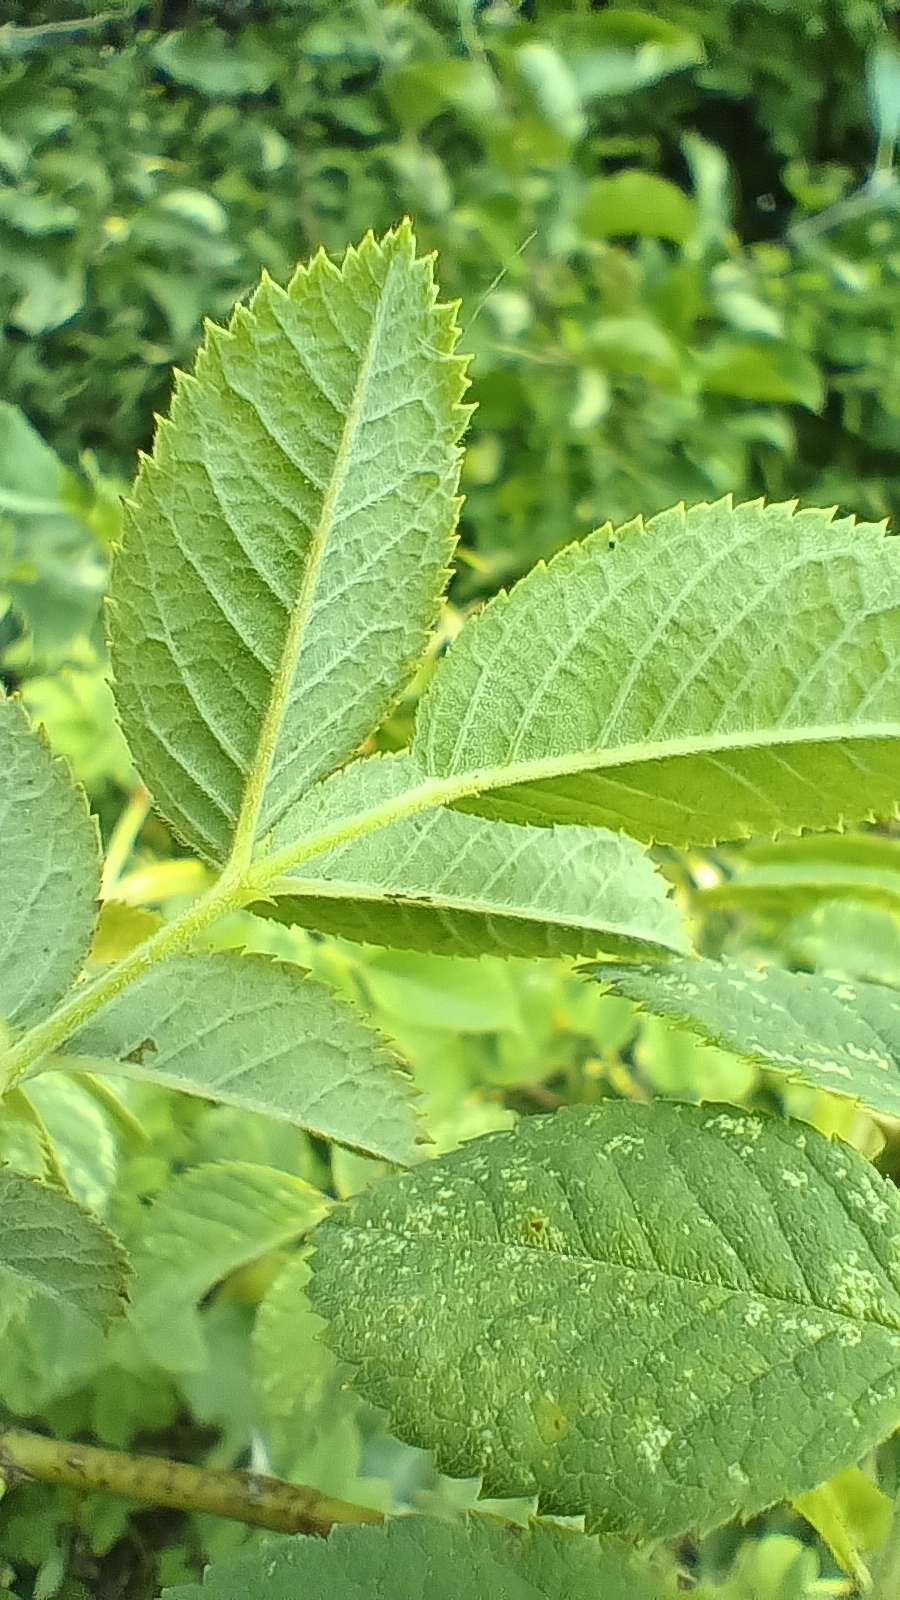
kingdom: Plantae
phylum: Tracheophyta
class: Magnoliopsida
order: Rosales
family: Rosaceae
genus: Rosa
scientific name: Rosa caesia
